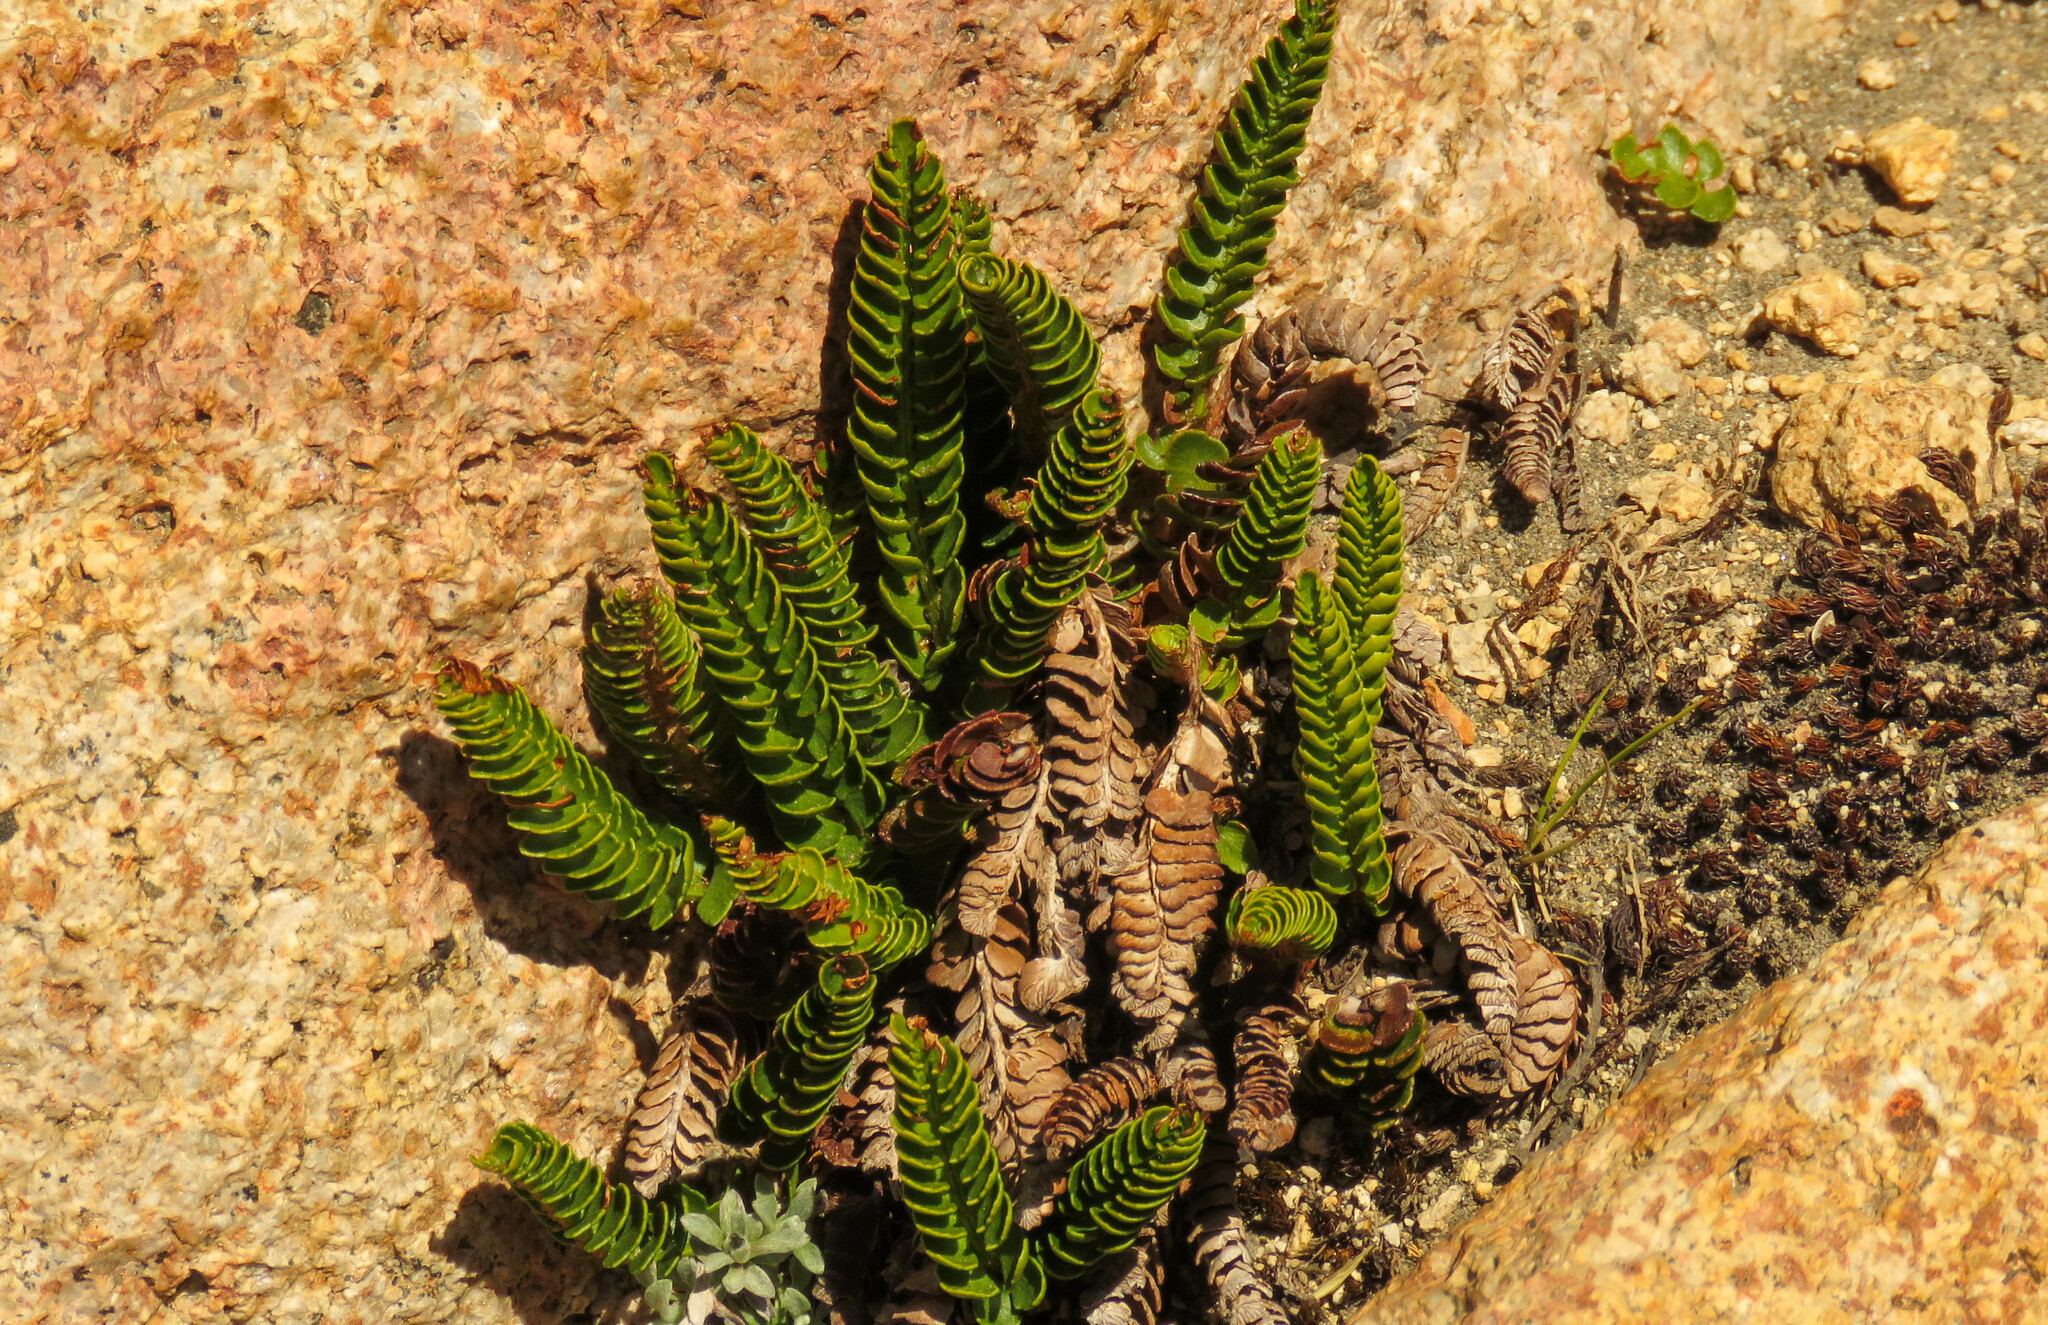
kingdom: Plantae
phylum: Tracheophyta
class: Polypodiopsida
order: Polypodiales
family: Dryopteridaceae
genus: Polystichum
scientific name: Polystichum andinum
